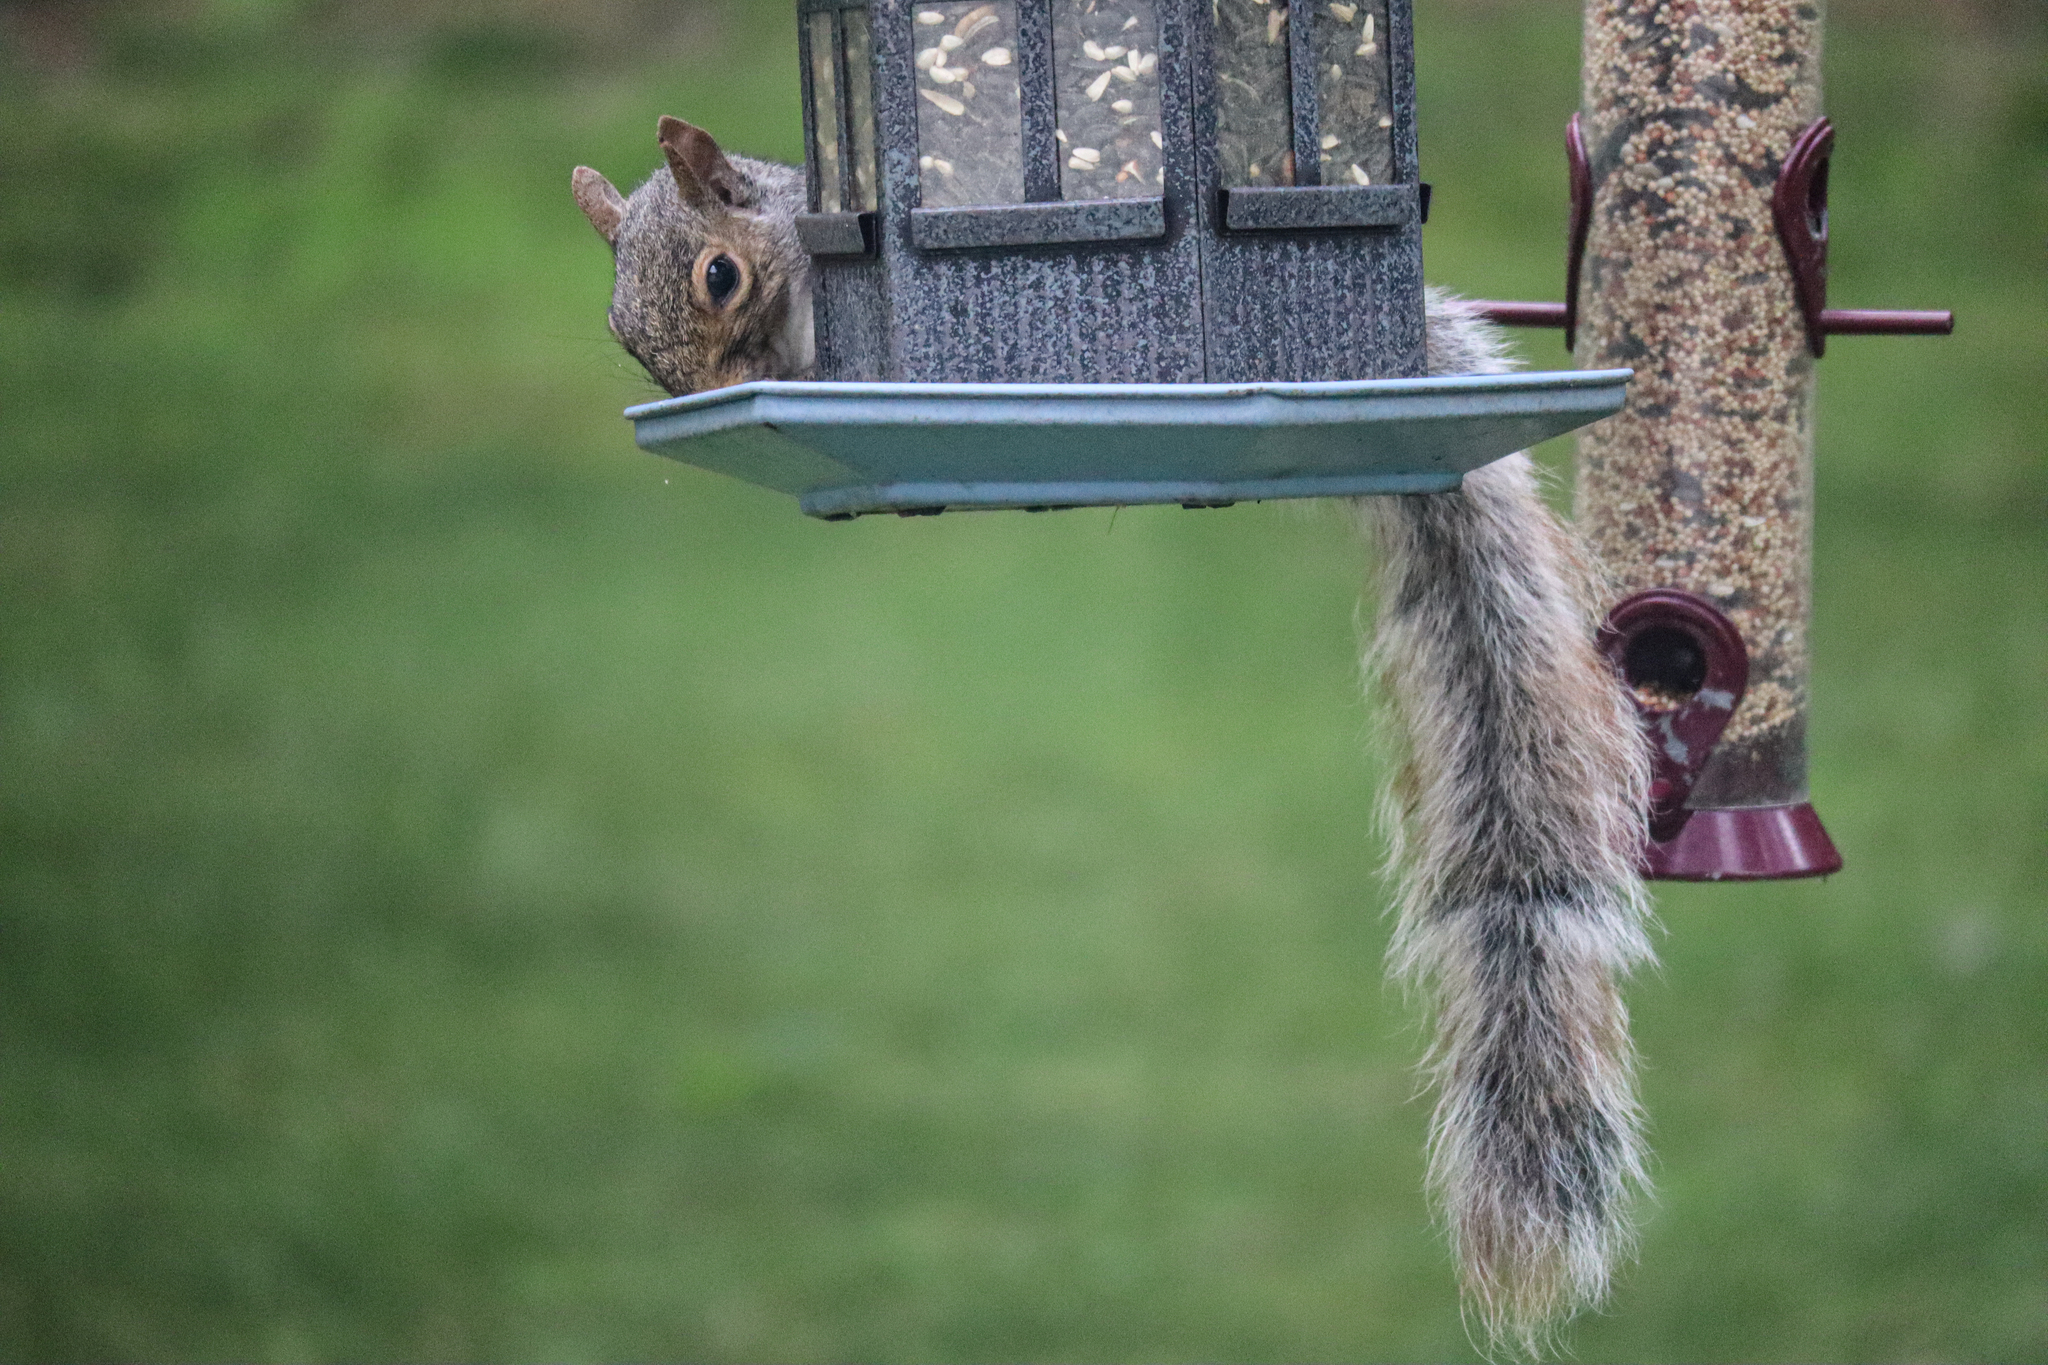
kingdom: Animalia
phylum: Chordata
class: Mammalia
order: Rodentia
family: Sciuridae
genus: Sciurus
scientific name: Sciurus carolinensis
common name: Eastern gray squirrel
